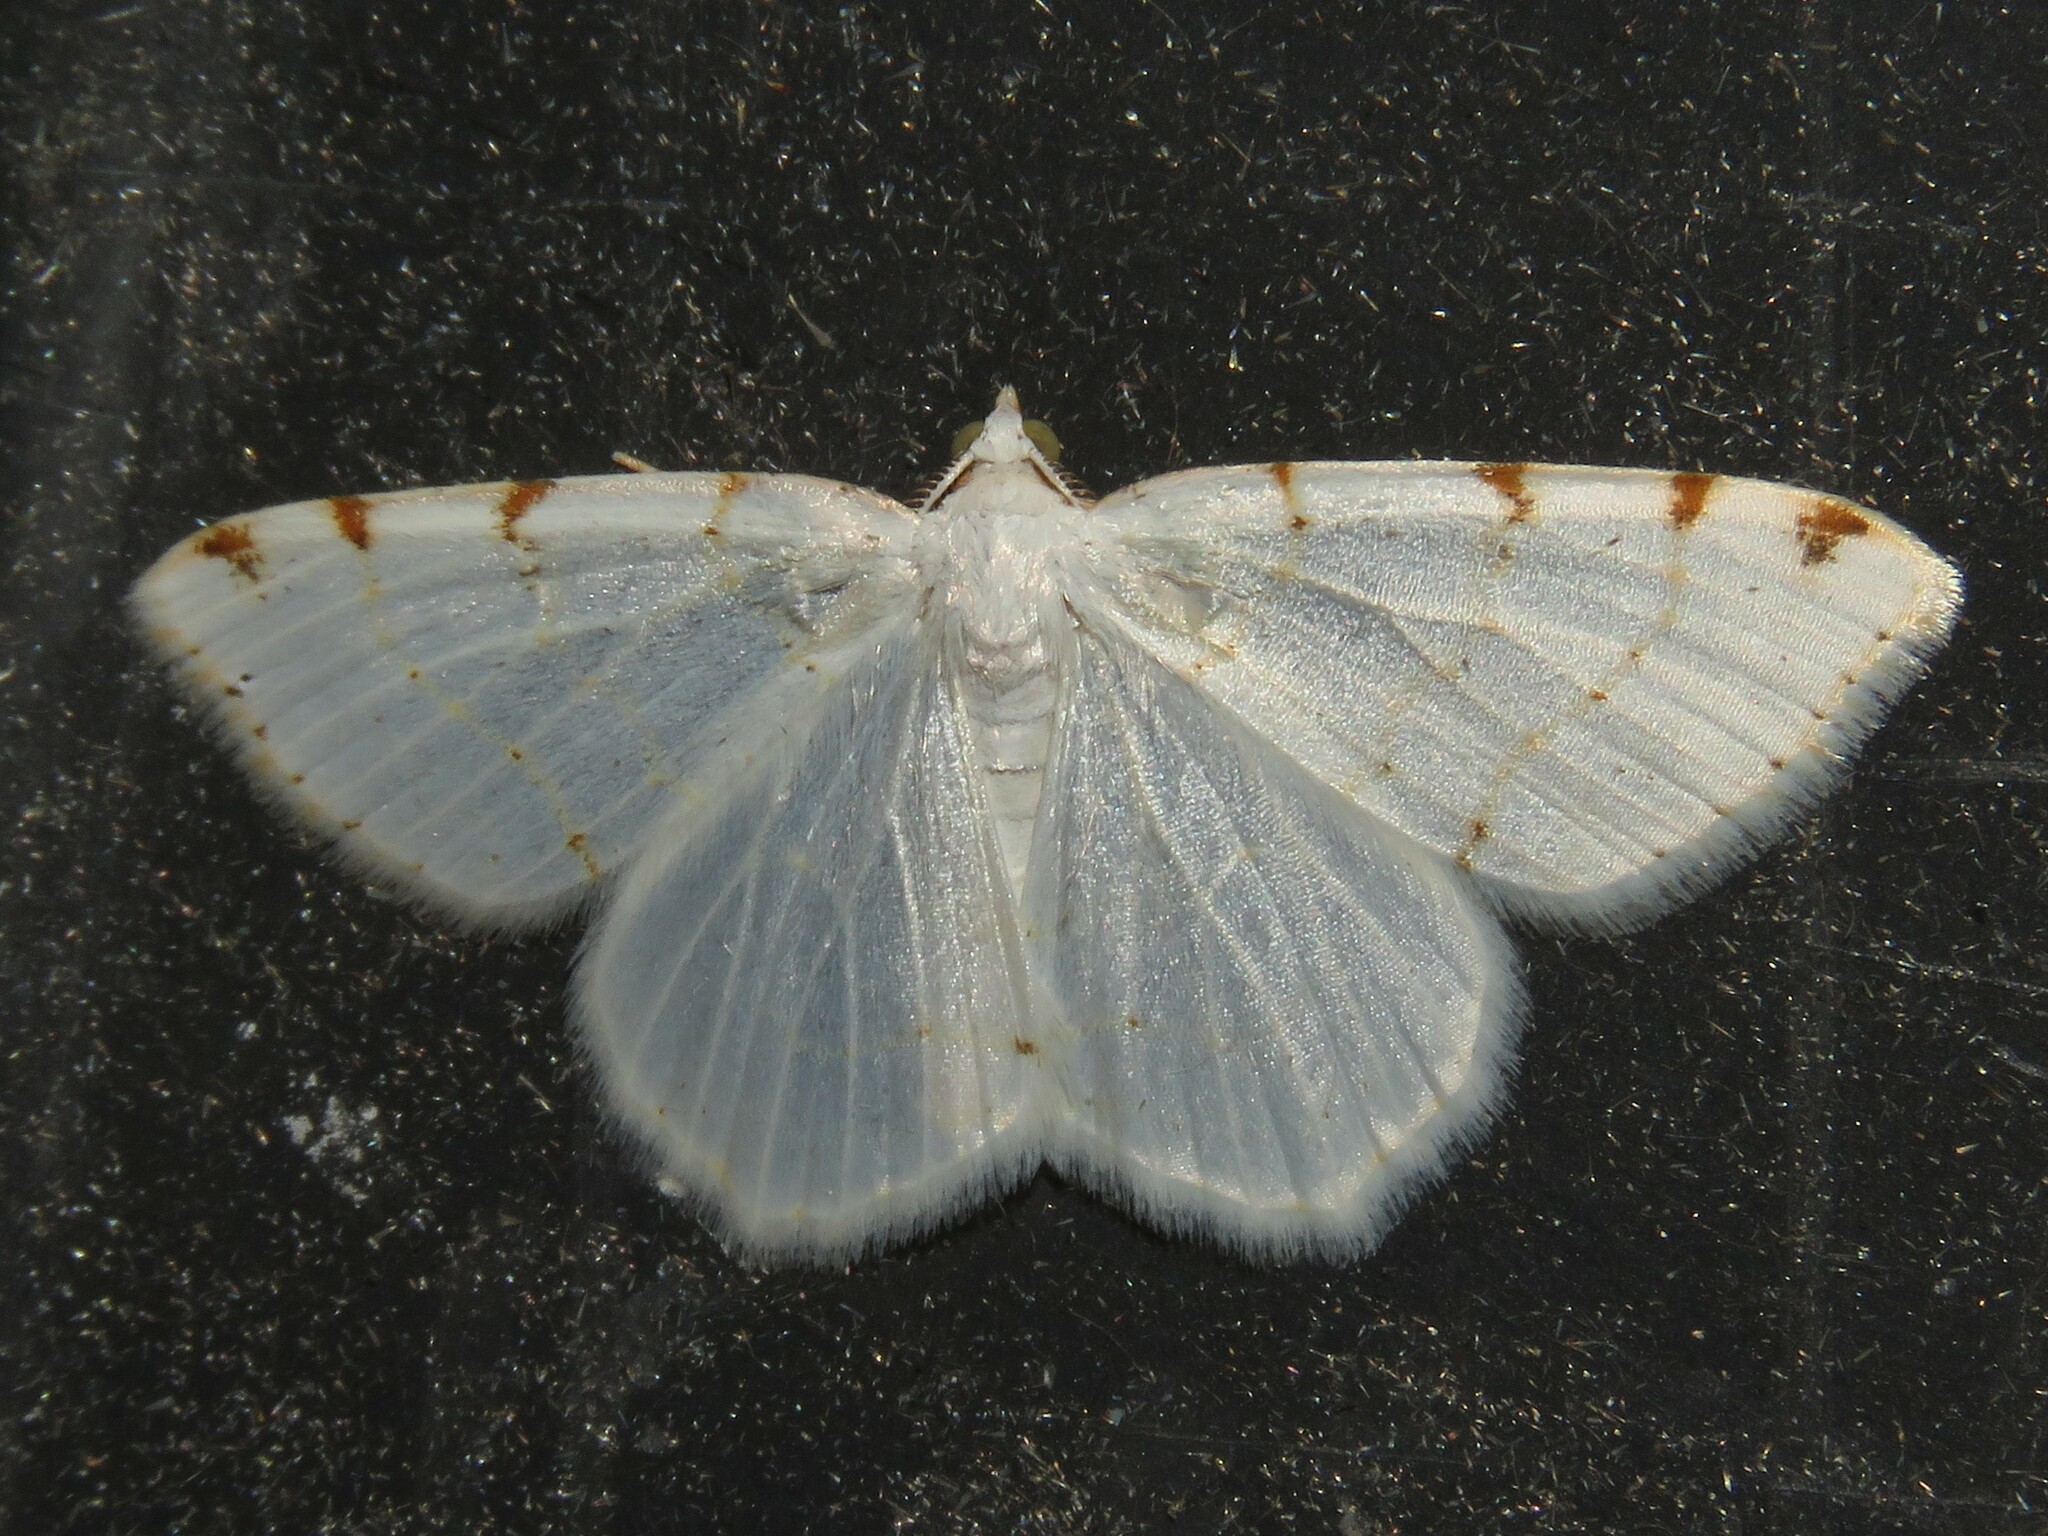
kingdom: Animalia
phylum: Arthropoda
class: Insecta
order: Lepidoptera
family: Geometridae
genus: Macaria
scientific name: Macaria pustularia
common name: Lesser maple spanworm moth
